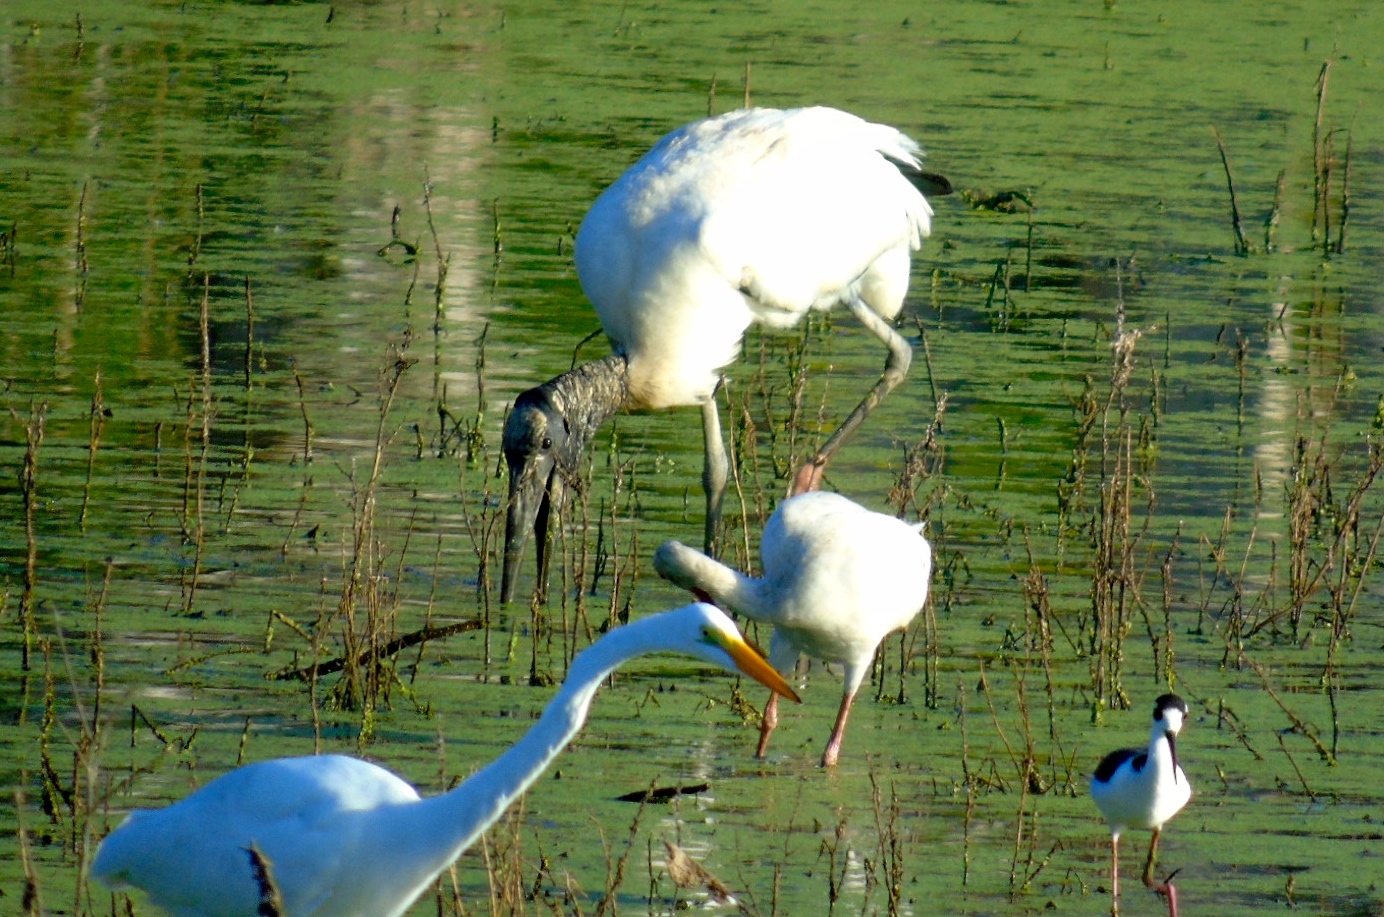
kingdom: Animalia
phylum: Chordata
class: Aves
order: Pelecaniformes
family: Ardeidae
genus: Ardea
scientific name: Ardea alba
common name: Great egret
